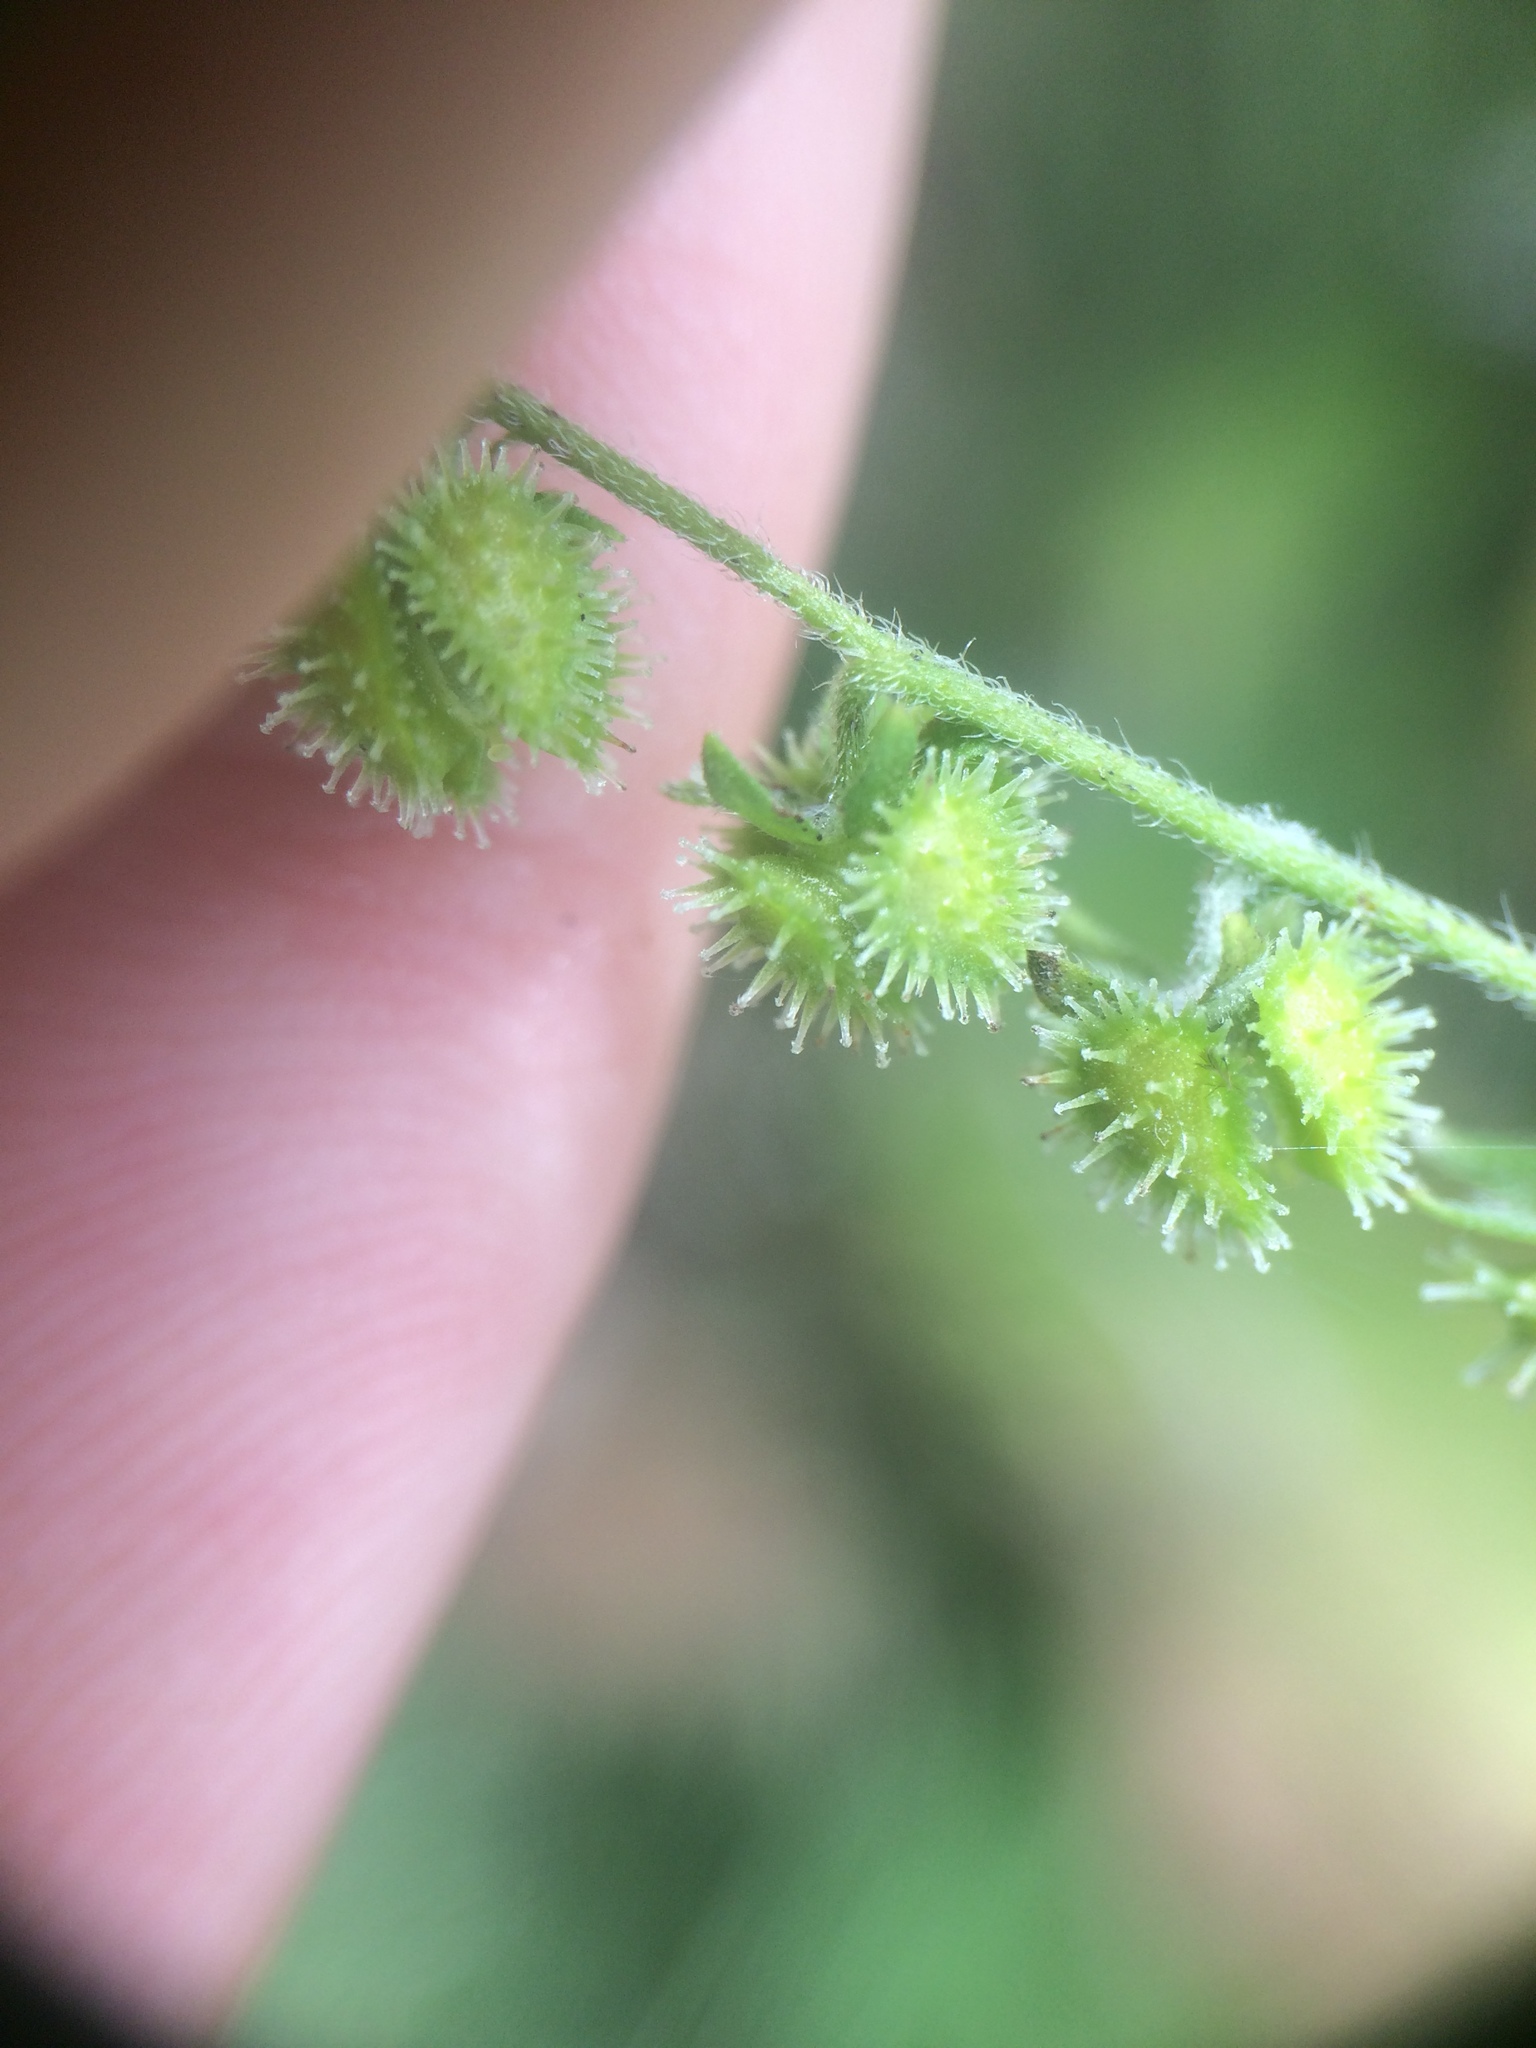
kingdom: Plantae
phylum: Tracheophyta
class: Magnoliopsida
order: Boraginales
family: Boraginaceae
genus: Hackelia
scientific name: Hackelia virginiana
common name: Beggar's-lice
